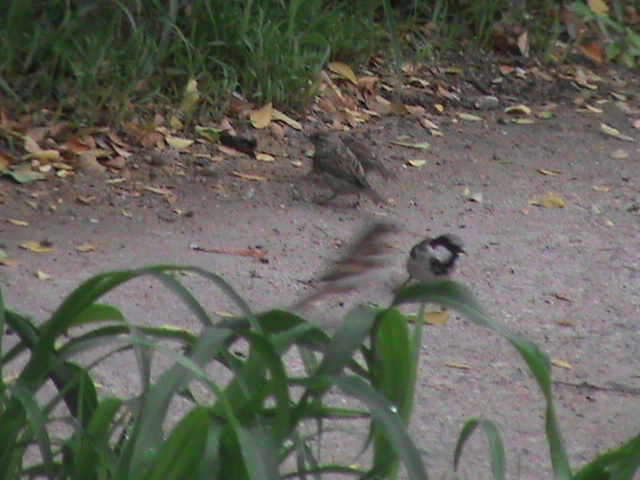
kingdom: Animalia
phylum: Chordata
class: Aves
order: Passeriformes
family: Passeridae
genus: Passer
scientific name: Passer domesticus
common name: House sparrow
